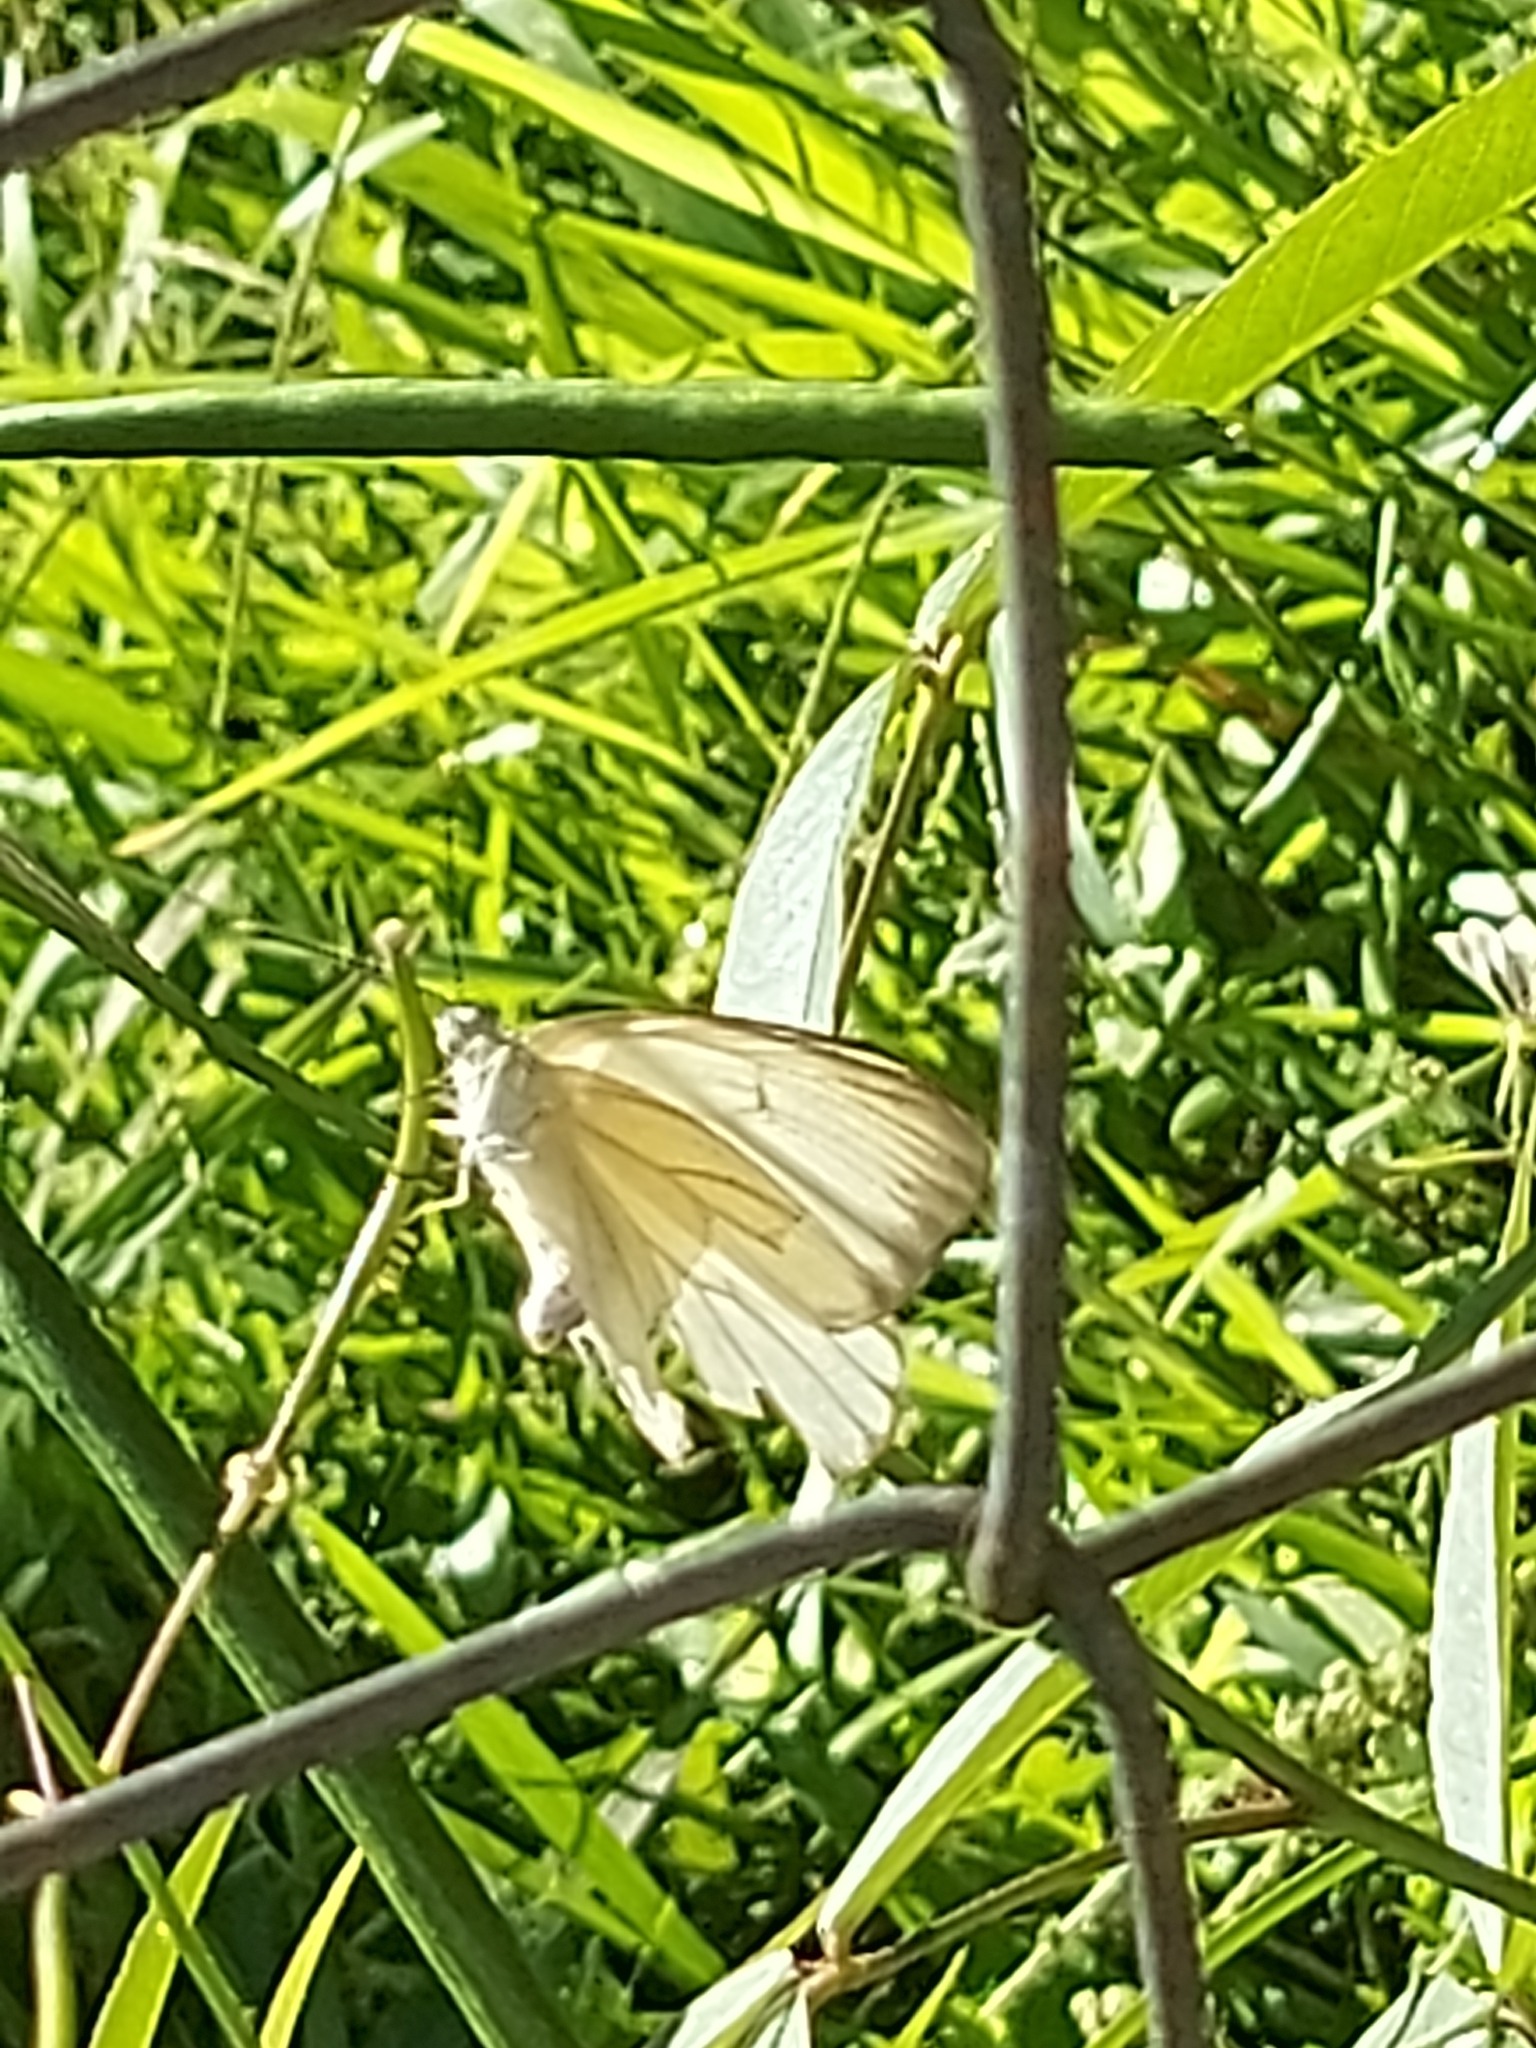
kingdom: Animalia
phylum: Arthropoda
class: Insecta
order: Lepidoptera
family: Pieridae
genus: Ascia
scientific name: Ascia monuste
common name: Great southern white
